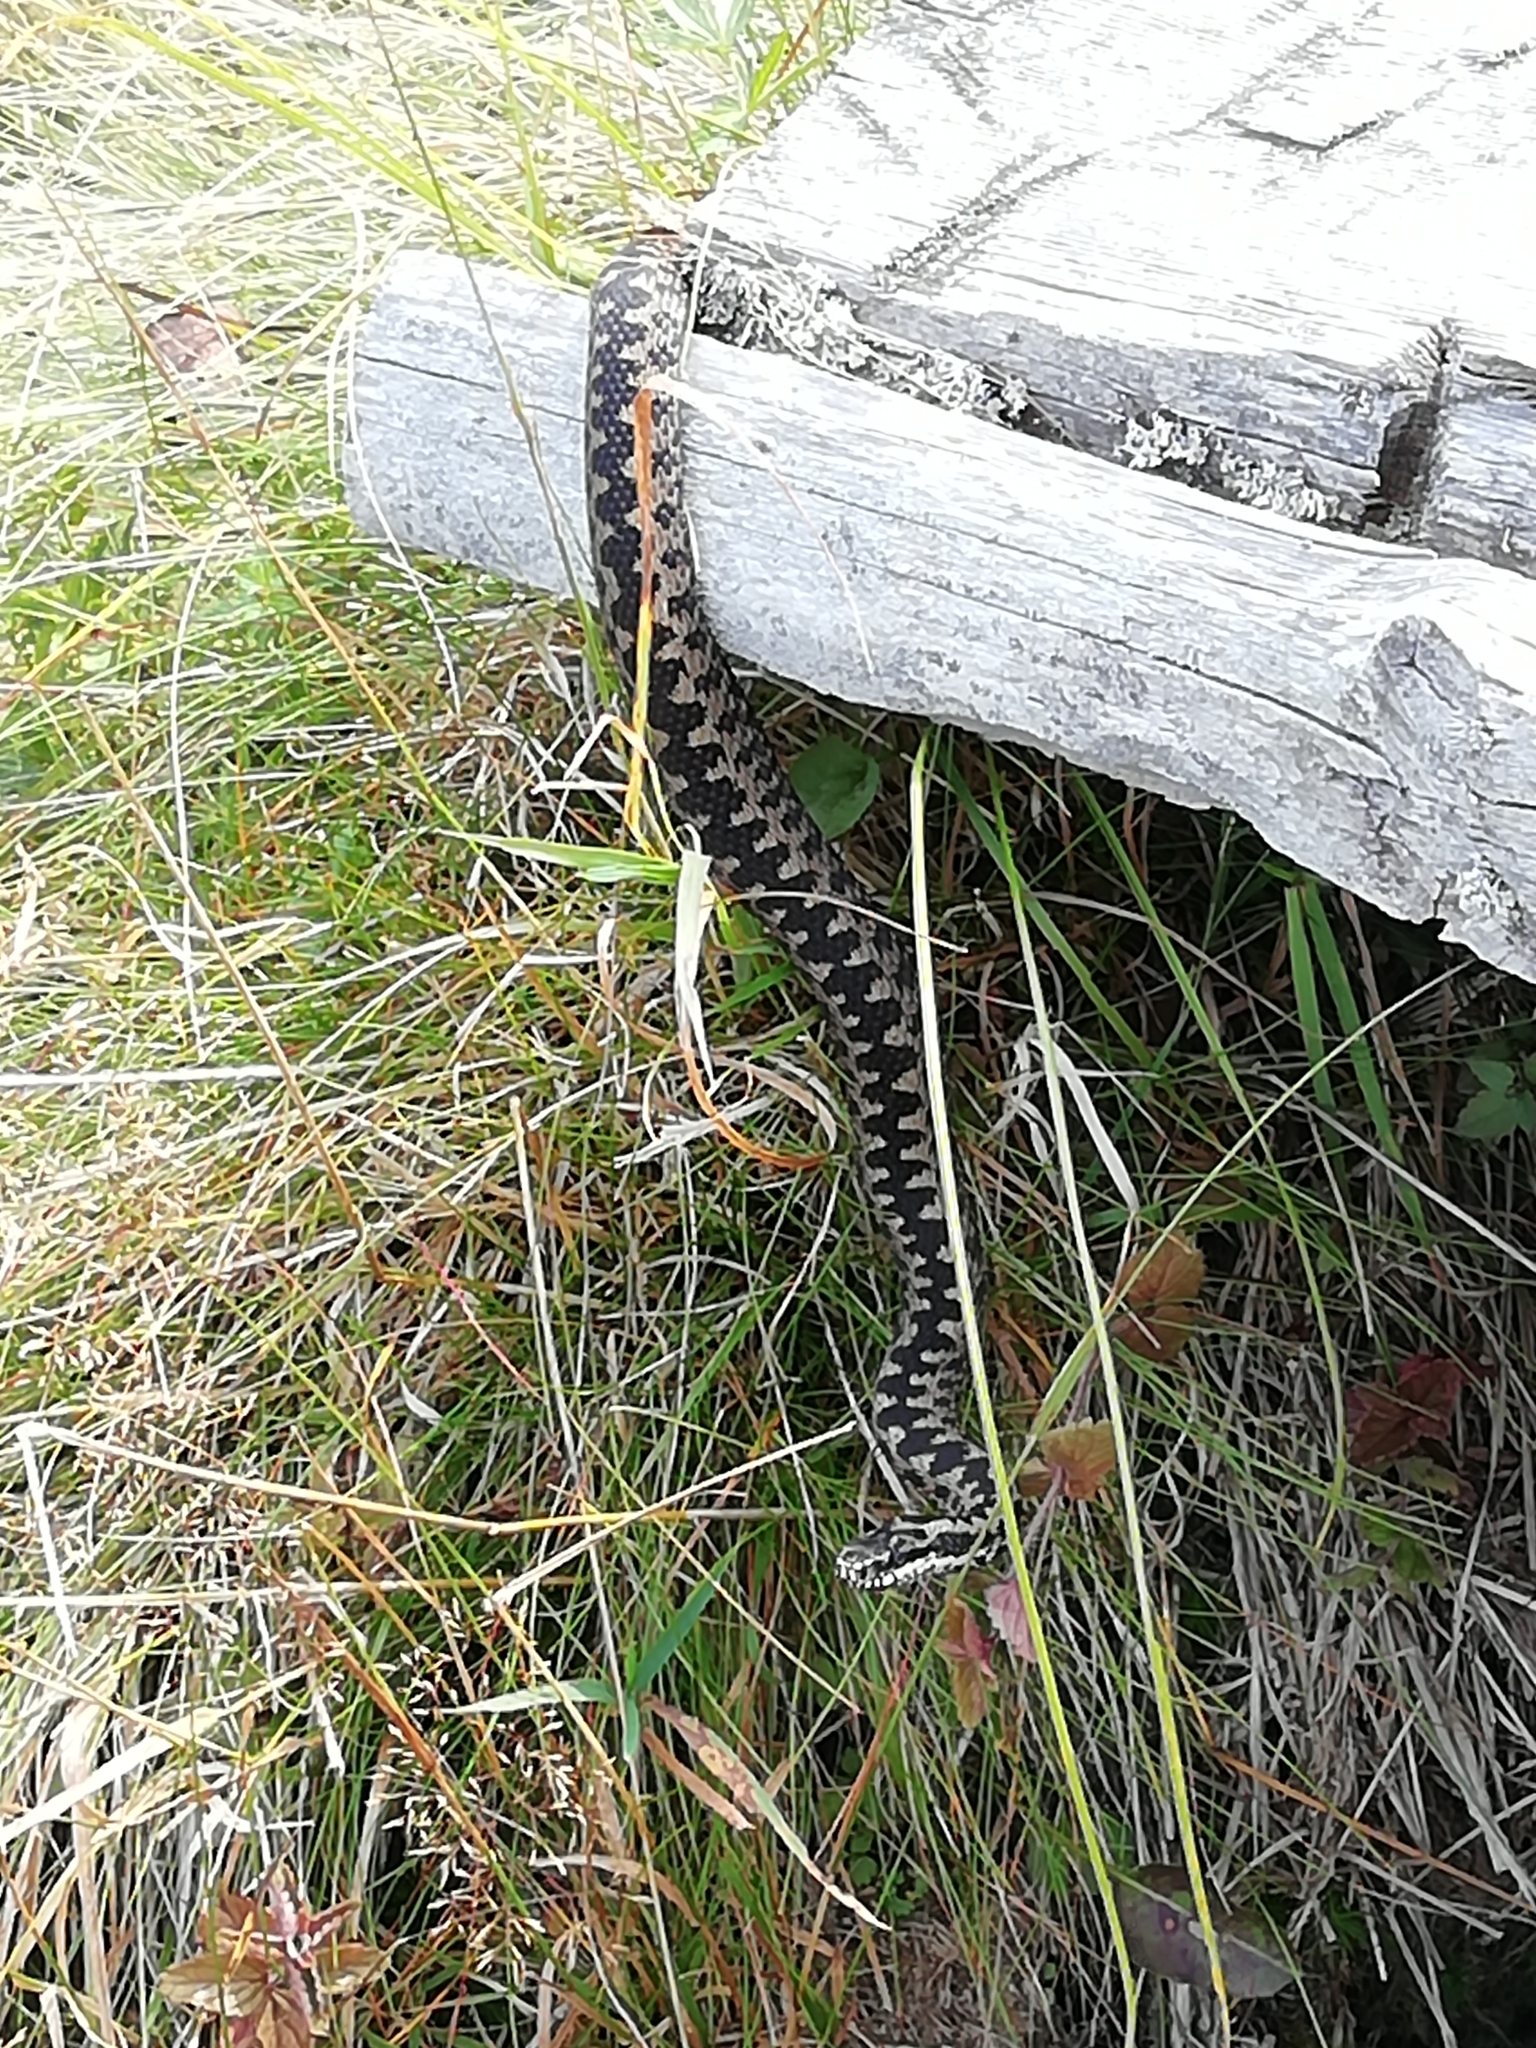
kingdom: Animalia
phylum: Chordata
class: Squamata
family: Viperidae
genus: Vipera
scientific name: Vipera berus
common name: Adder
